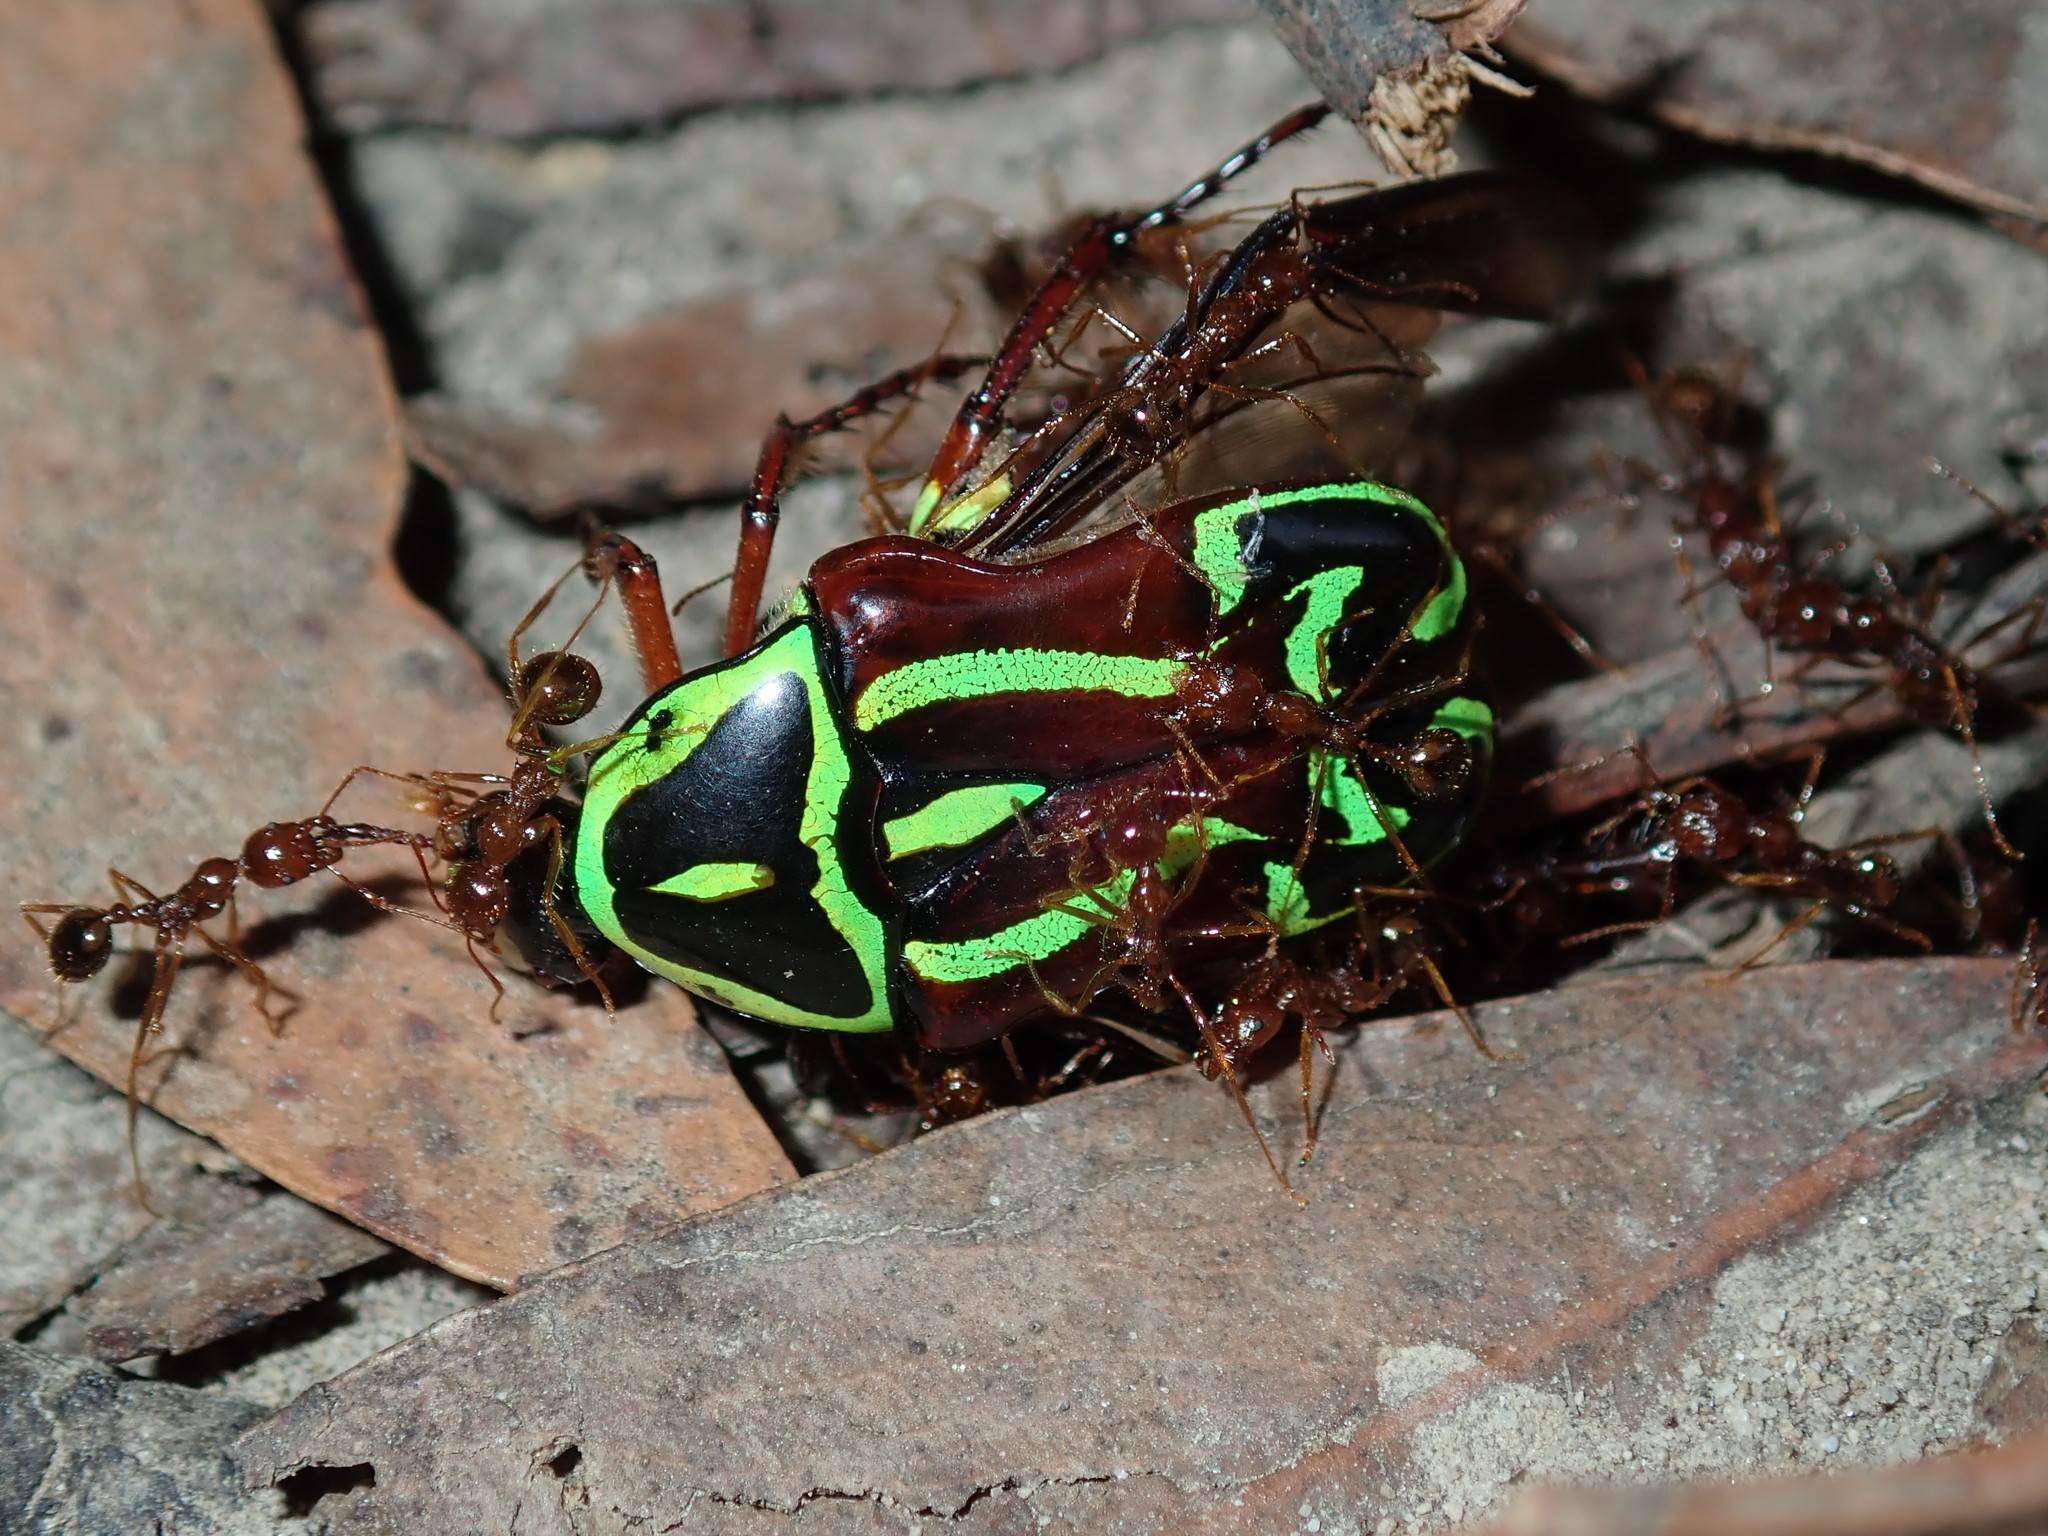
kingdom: Animalia
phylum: Arthropoda
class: Insecta
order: Coleoptera
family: Scarabaeidae
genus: Eupoecila
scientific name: Eupoecila australasiae
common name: Fiddler beetle
